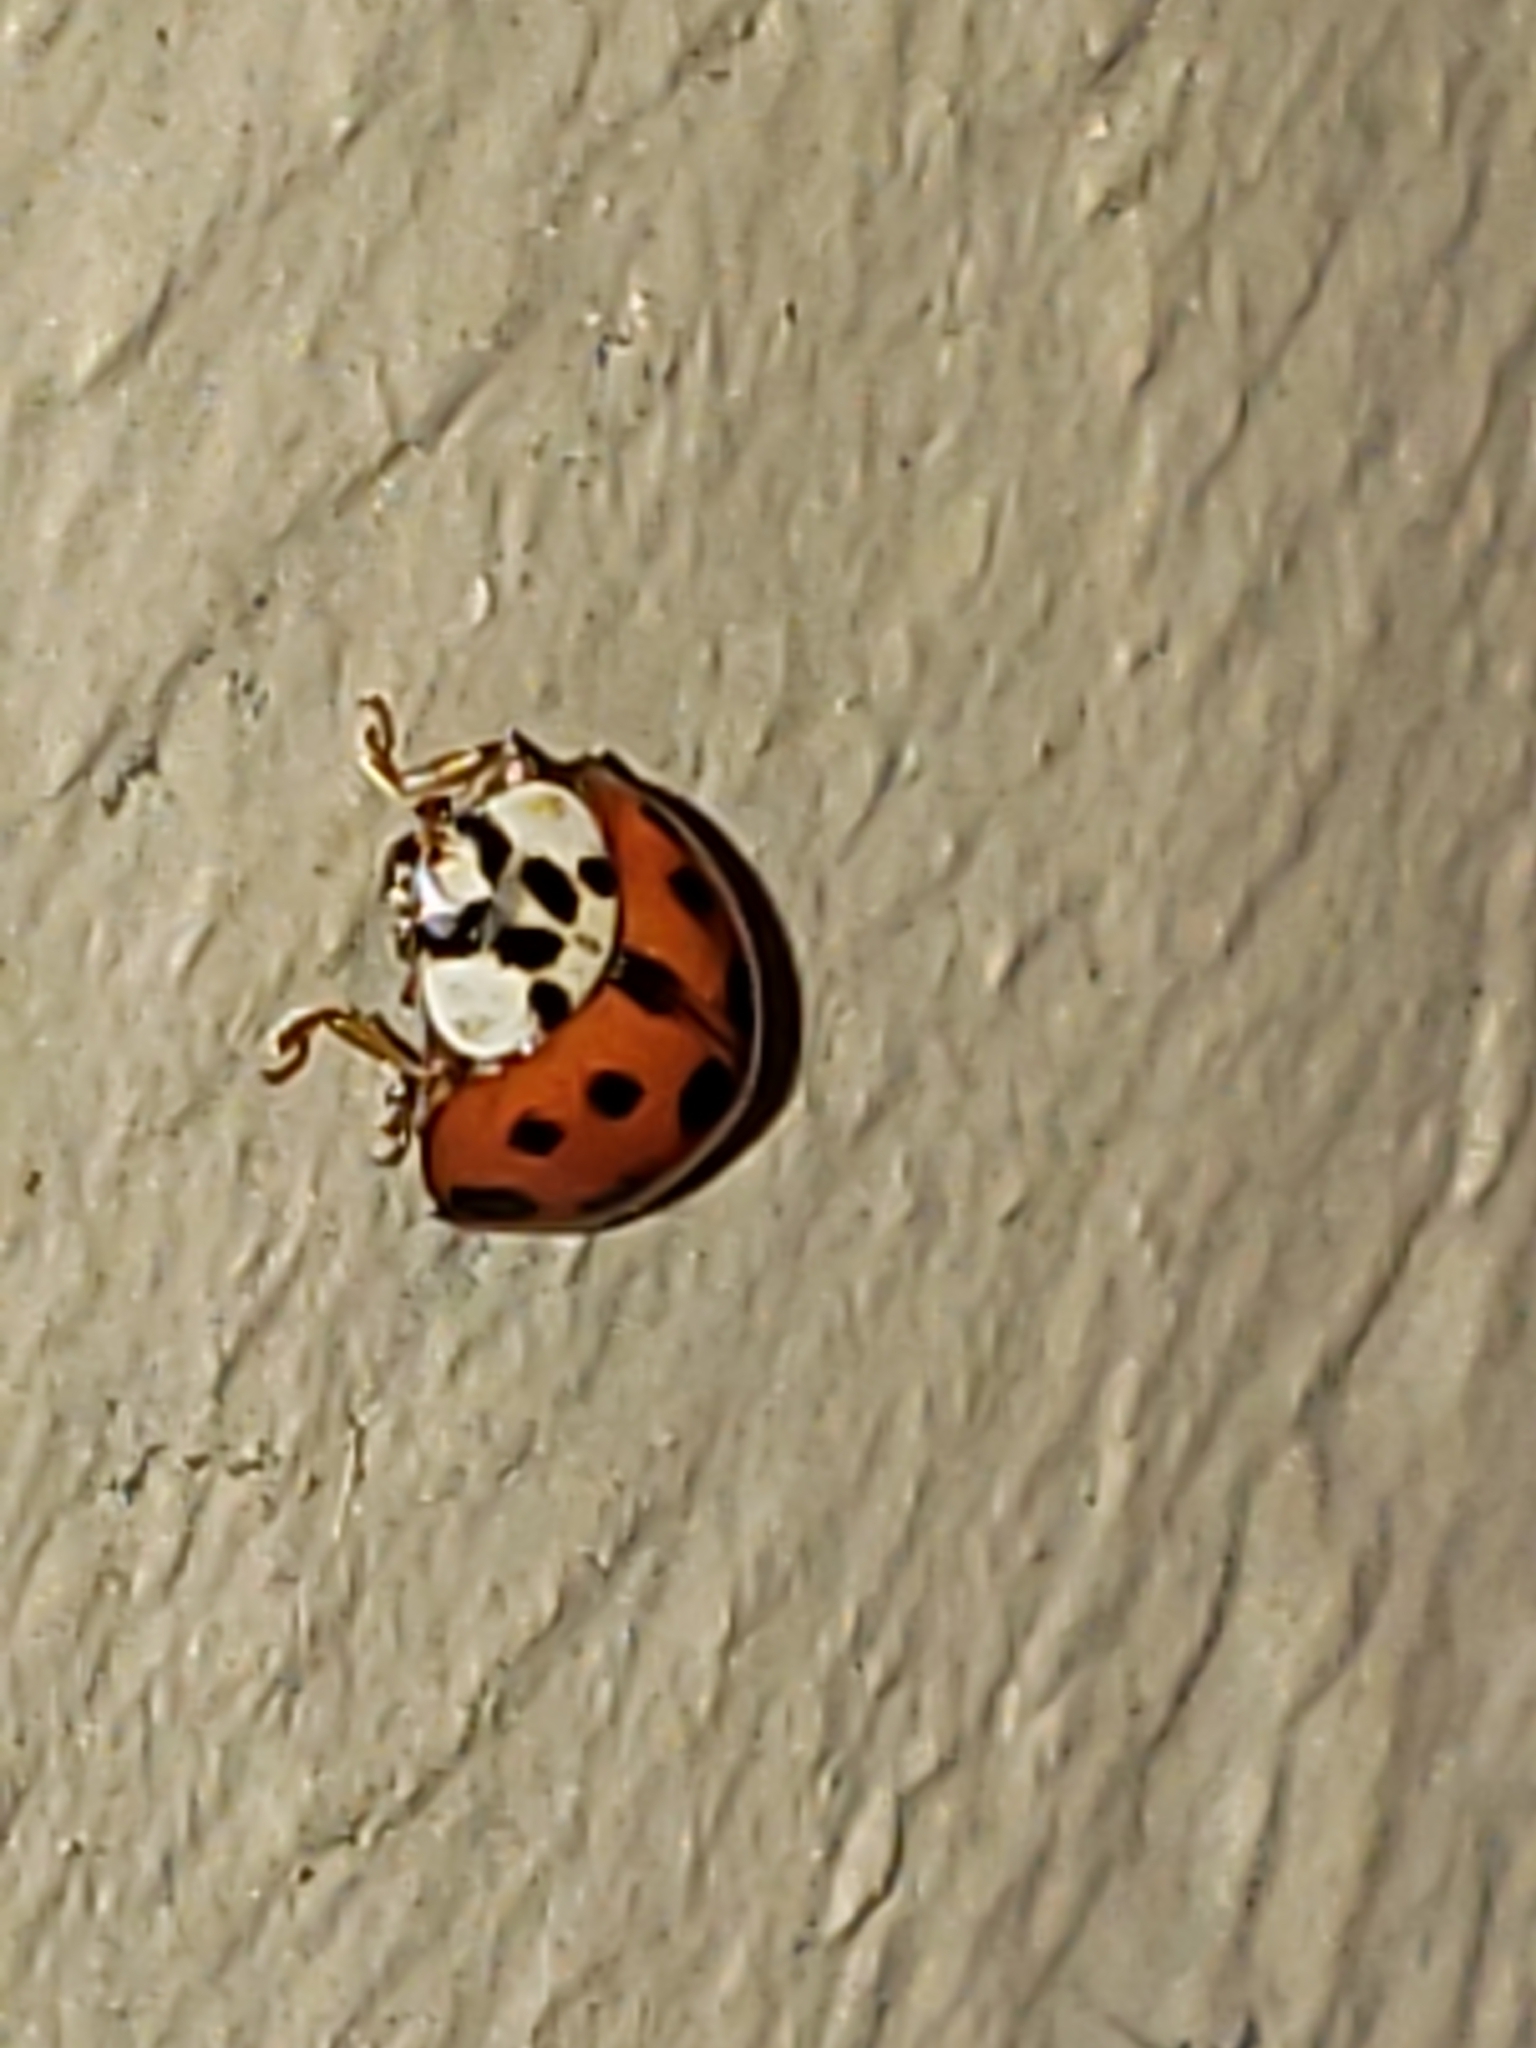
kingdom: Animalia
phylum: Arthropoda
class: Insecta
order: Coleoptera
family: Coccinellidae
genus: Harmonia
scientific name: Harmonia axyridis
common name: Harlequin ladybird
